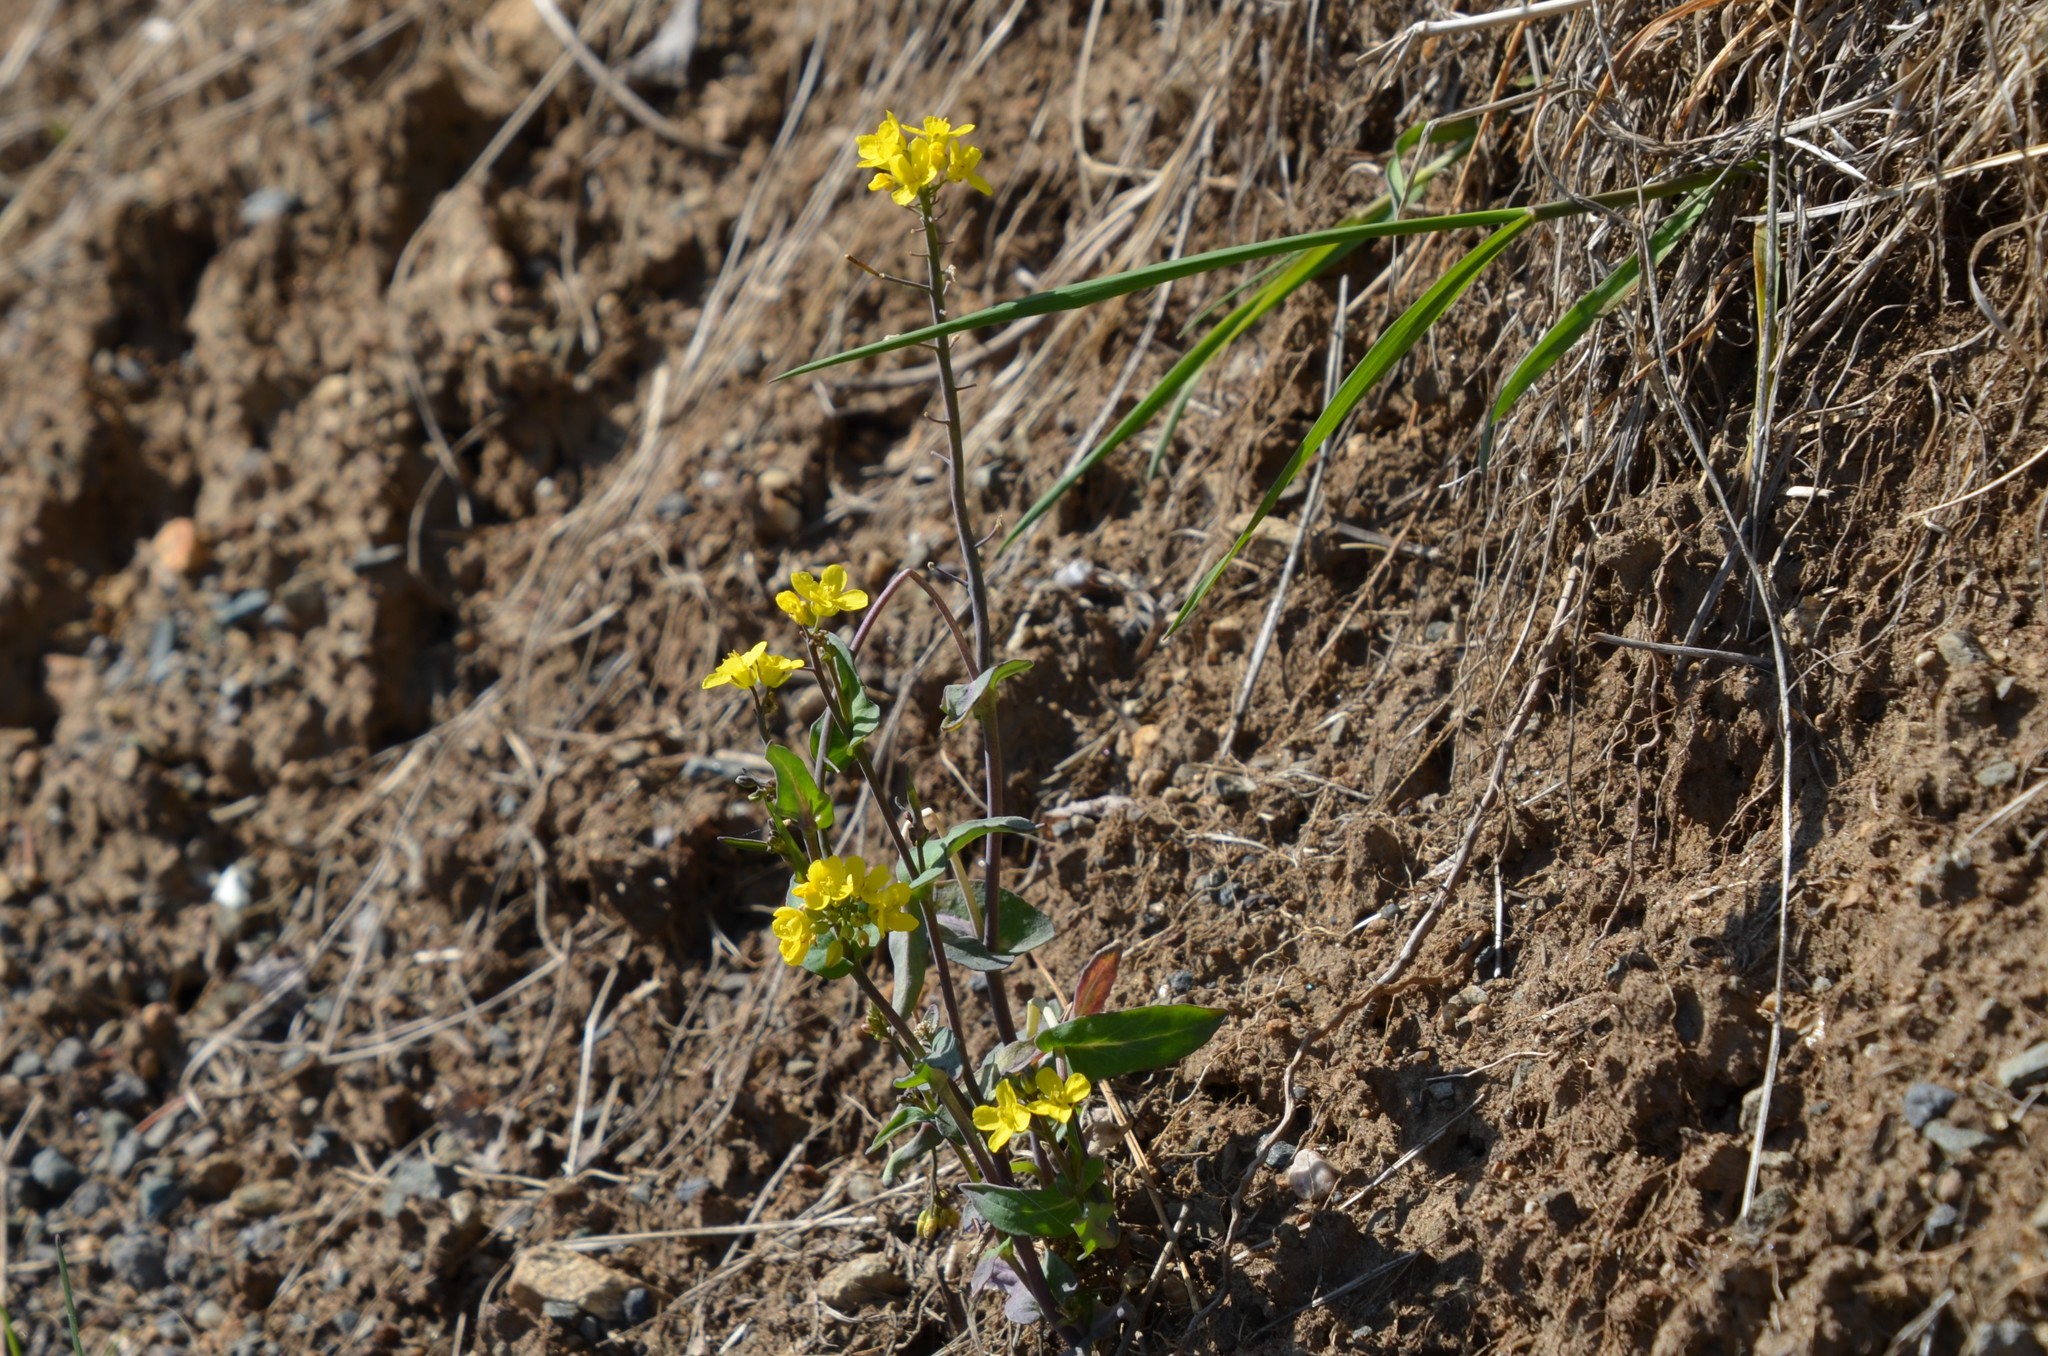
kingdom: Plantae
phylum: Tracheophyta
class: Magnoliopsida
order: Brassicales
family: Brassicaceae
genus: Brassica
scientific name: Brassica rapa
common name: Field mustard
